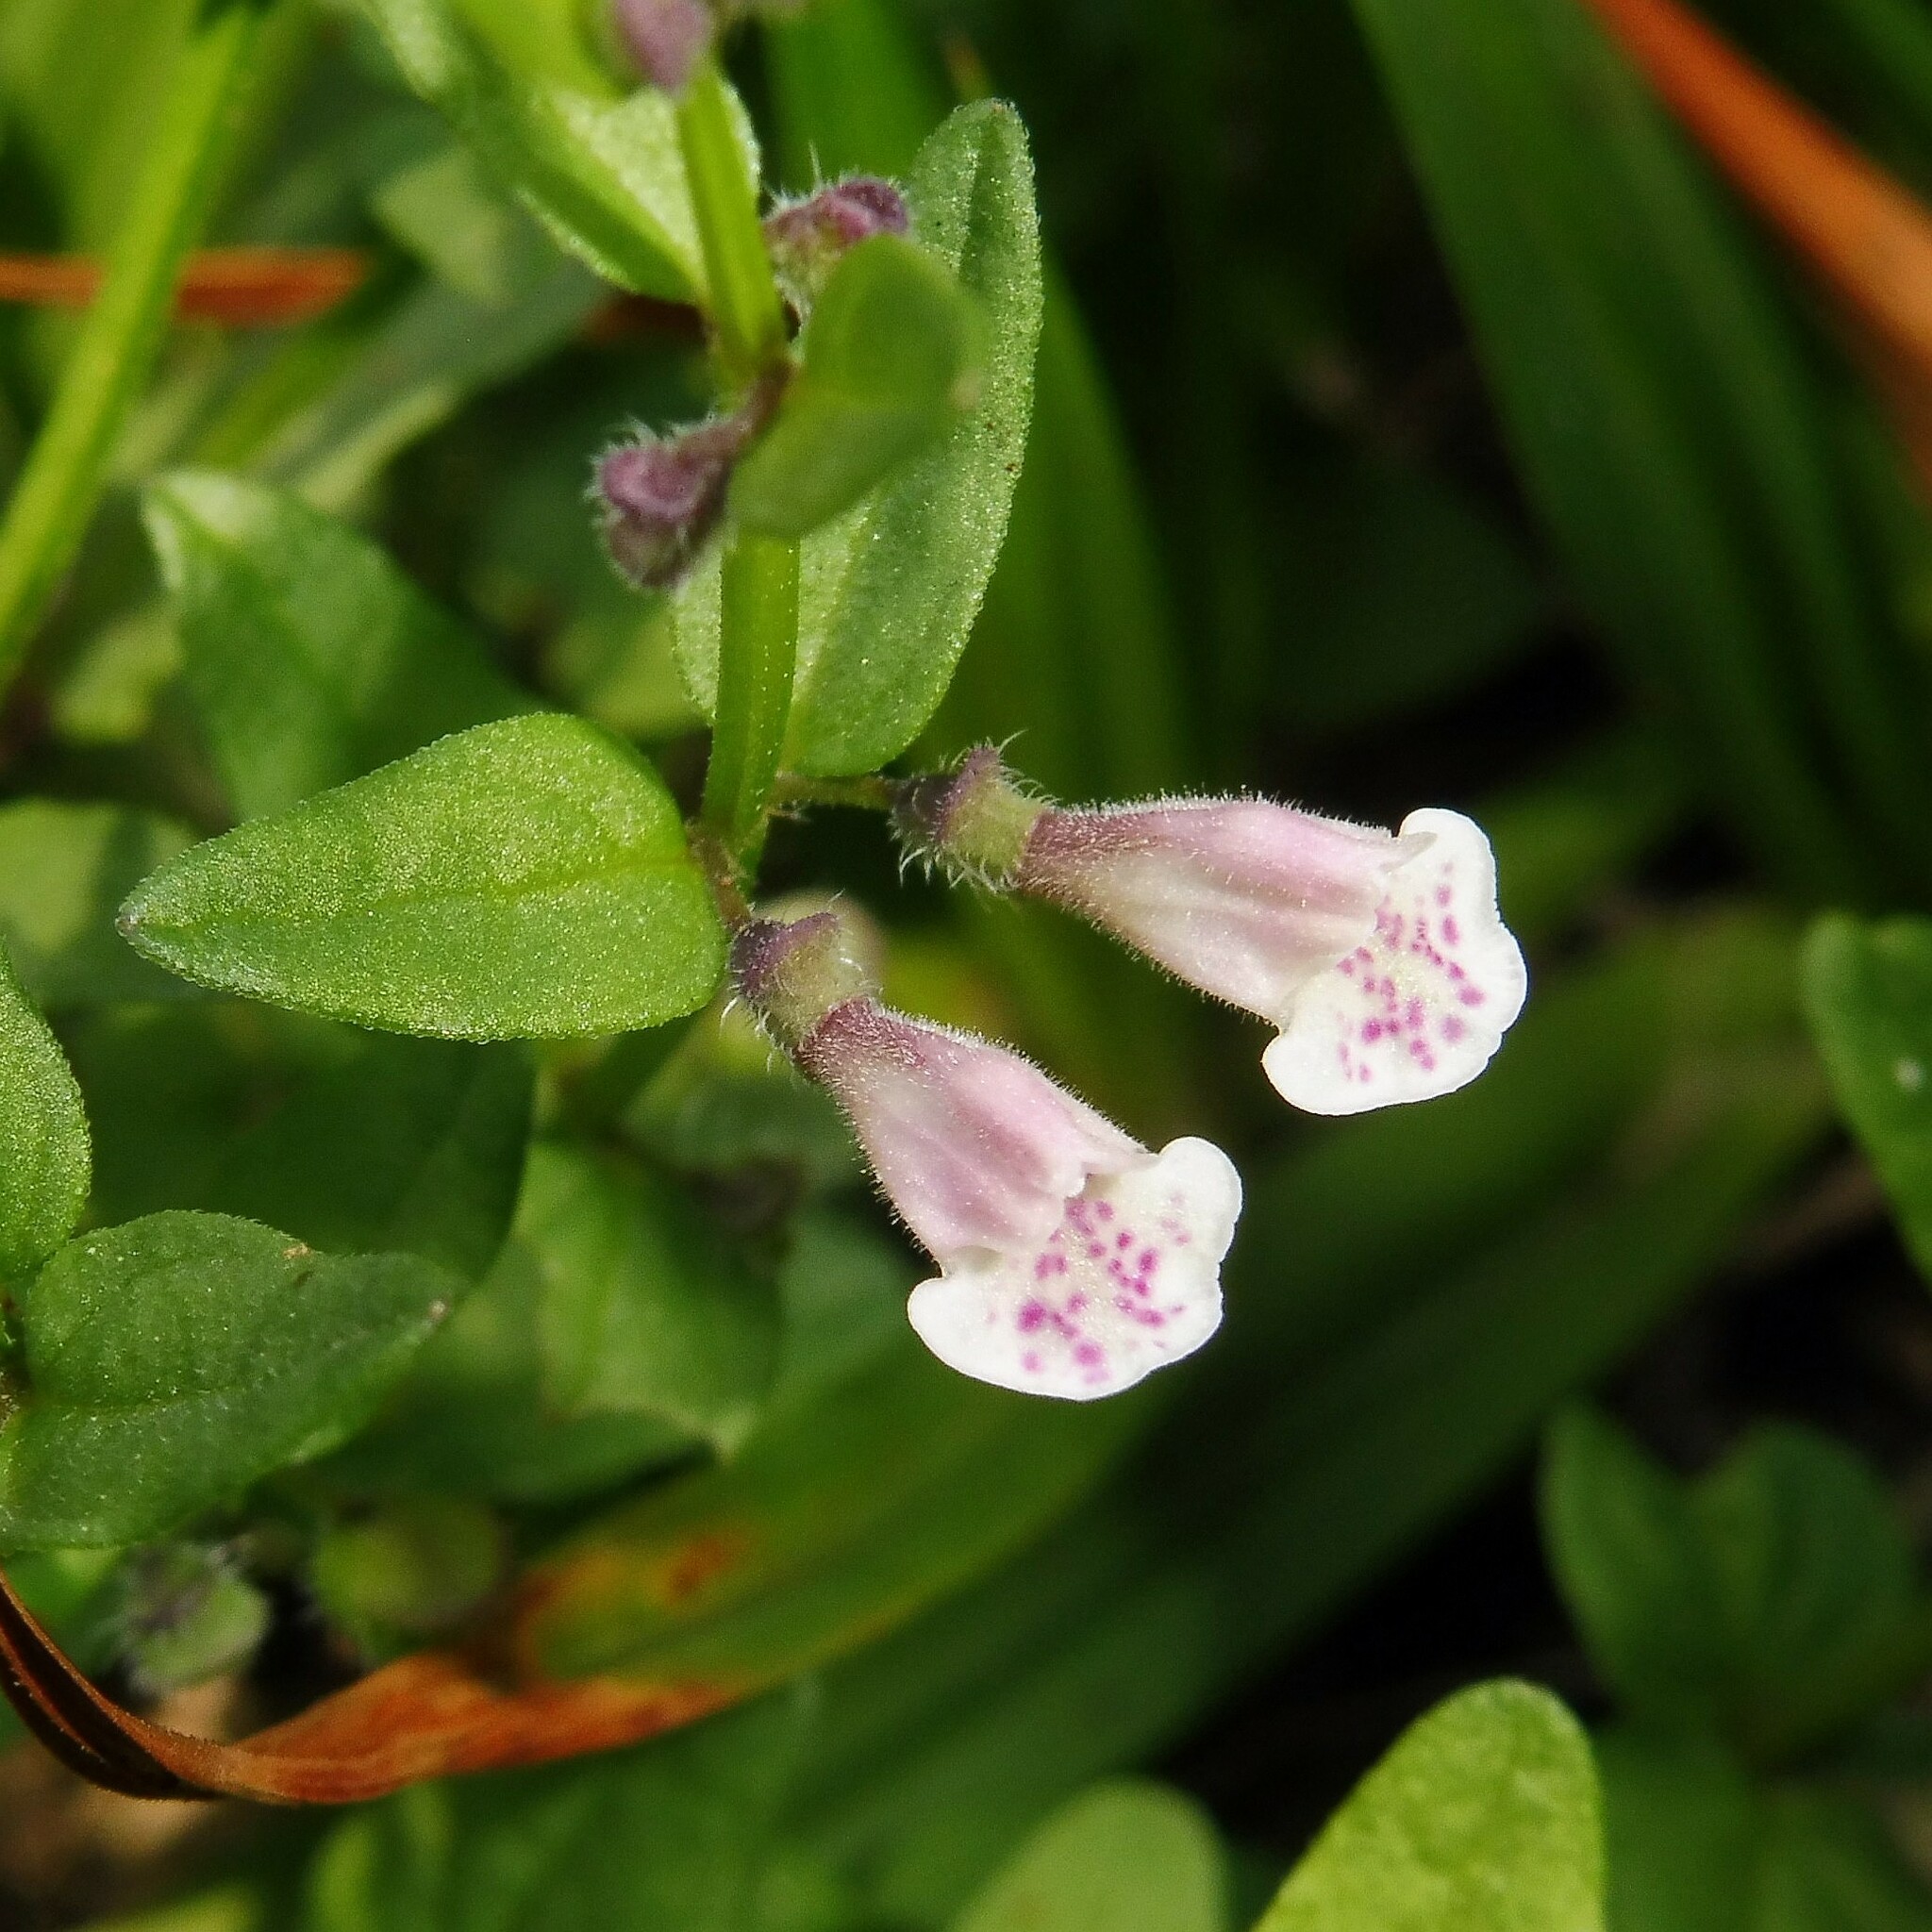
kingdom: Plantae
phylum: Tracheophyta
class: Magnoliopsida
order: Lamiales
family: Lamiaceae
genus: Scutellaria
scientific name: Scutellaria minor
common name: Lesser skullcap
